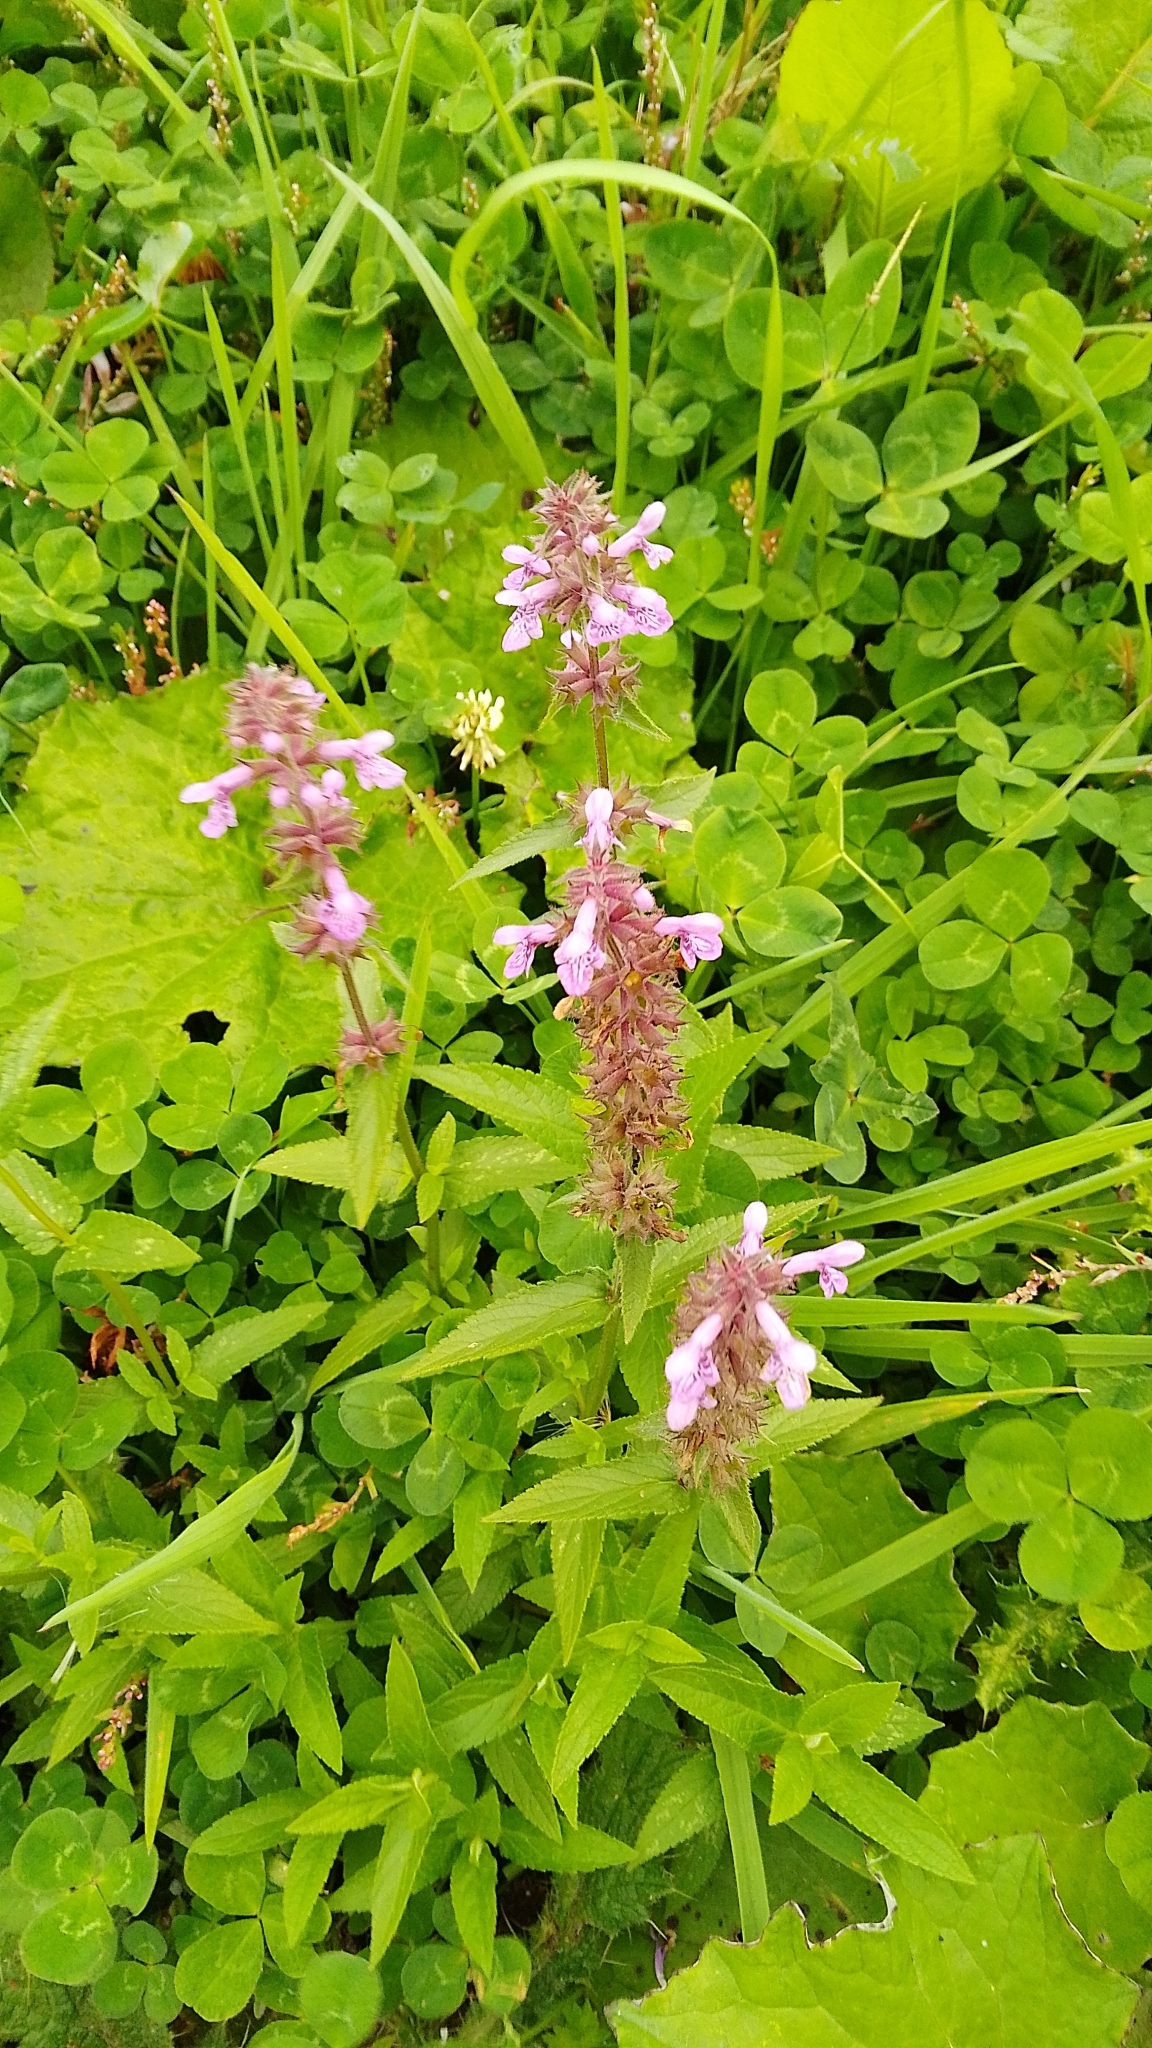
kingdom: Plantae
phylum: Tracheophyta
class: Magnoliopsida
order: Lamiales
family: Lamiaceae
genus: Stachys
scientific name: Stachys palustris
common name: Marsh woundwort
